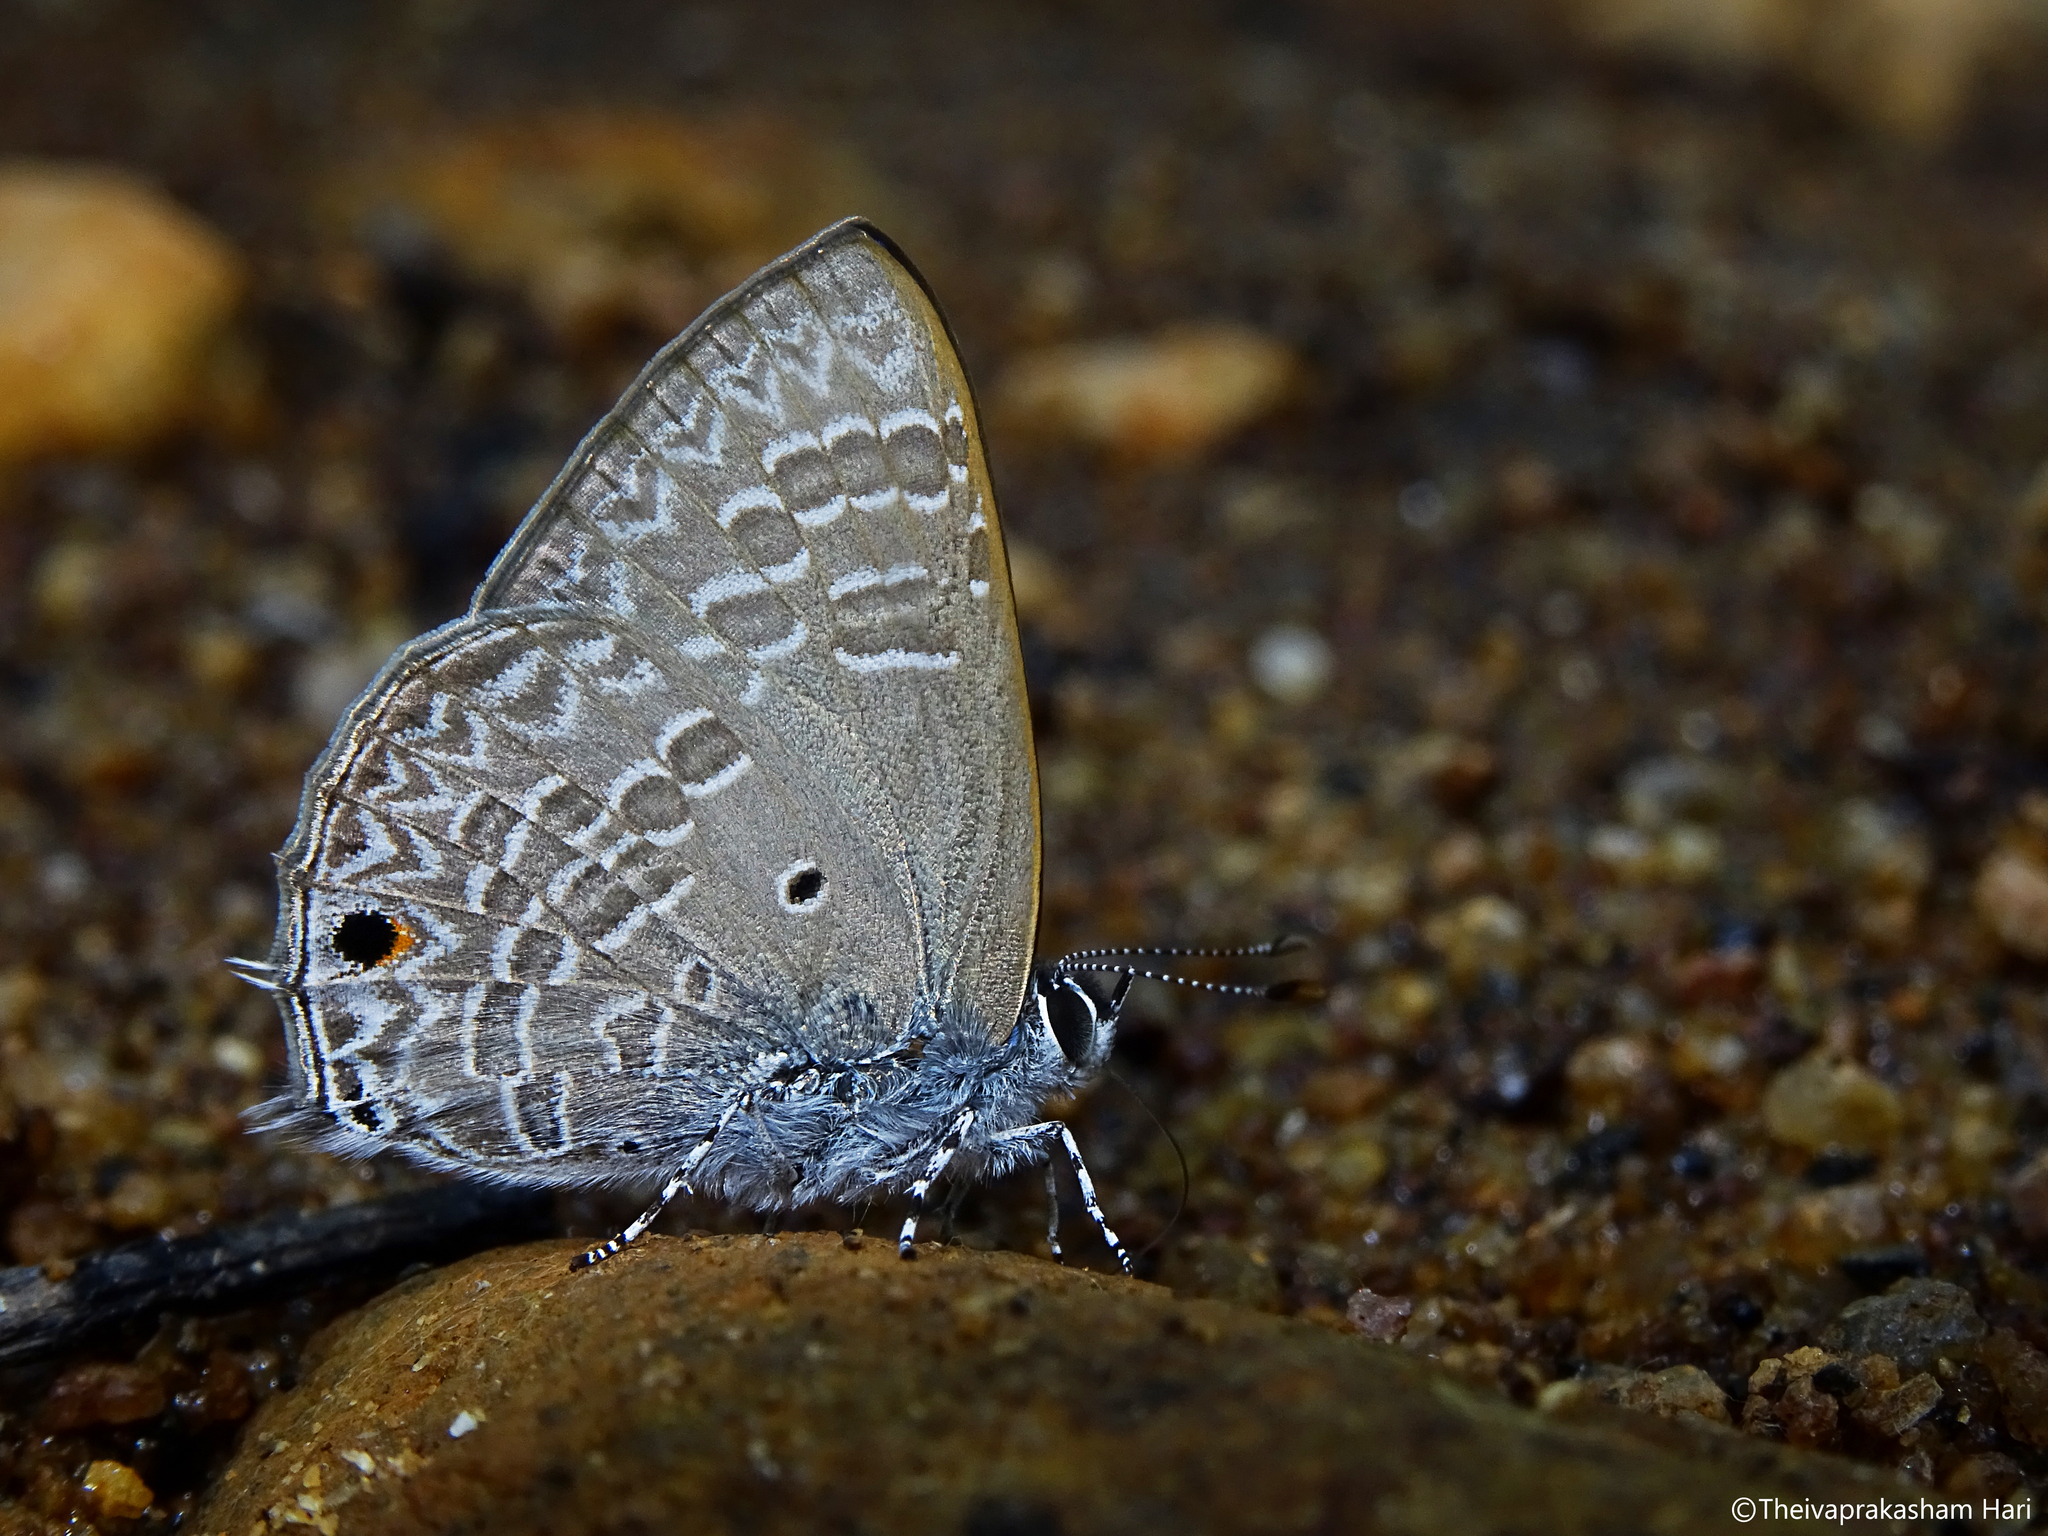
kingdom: Animalia
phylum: Arthropoda
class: Insecta
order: Lepidoptera
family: Lycaenidae
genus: Anthene
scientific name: Anthene lycaenina
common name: Pointed ciliate blue
